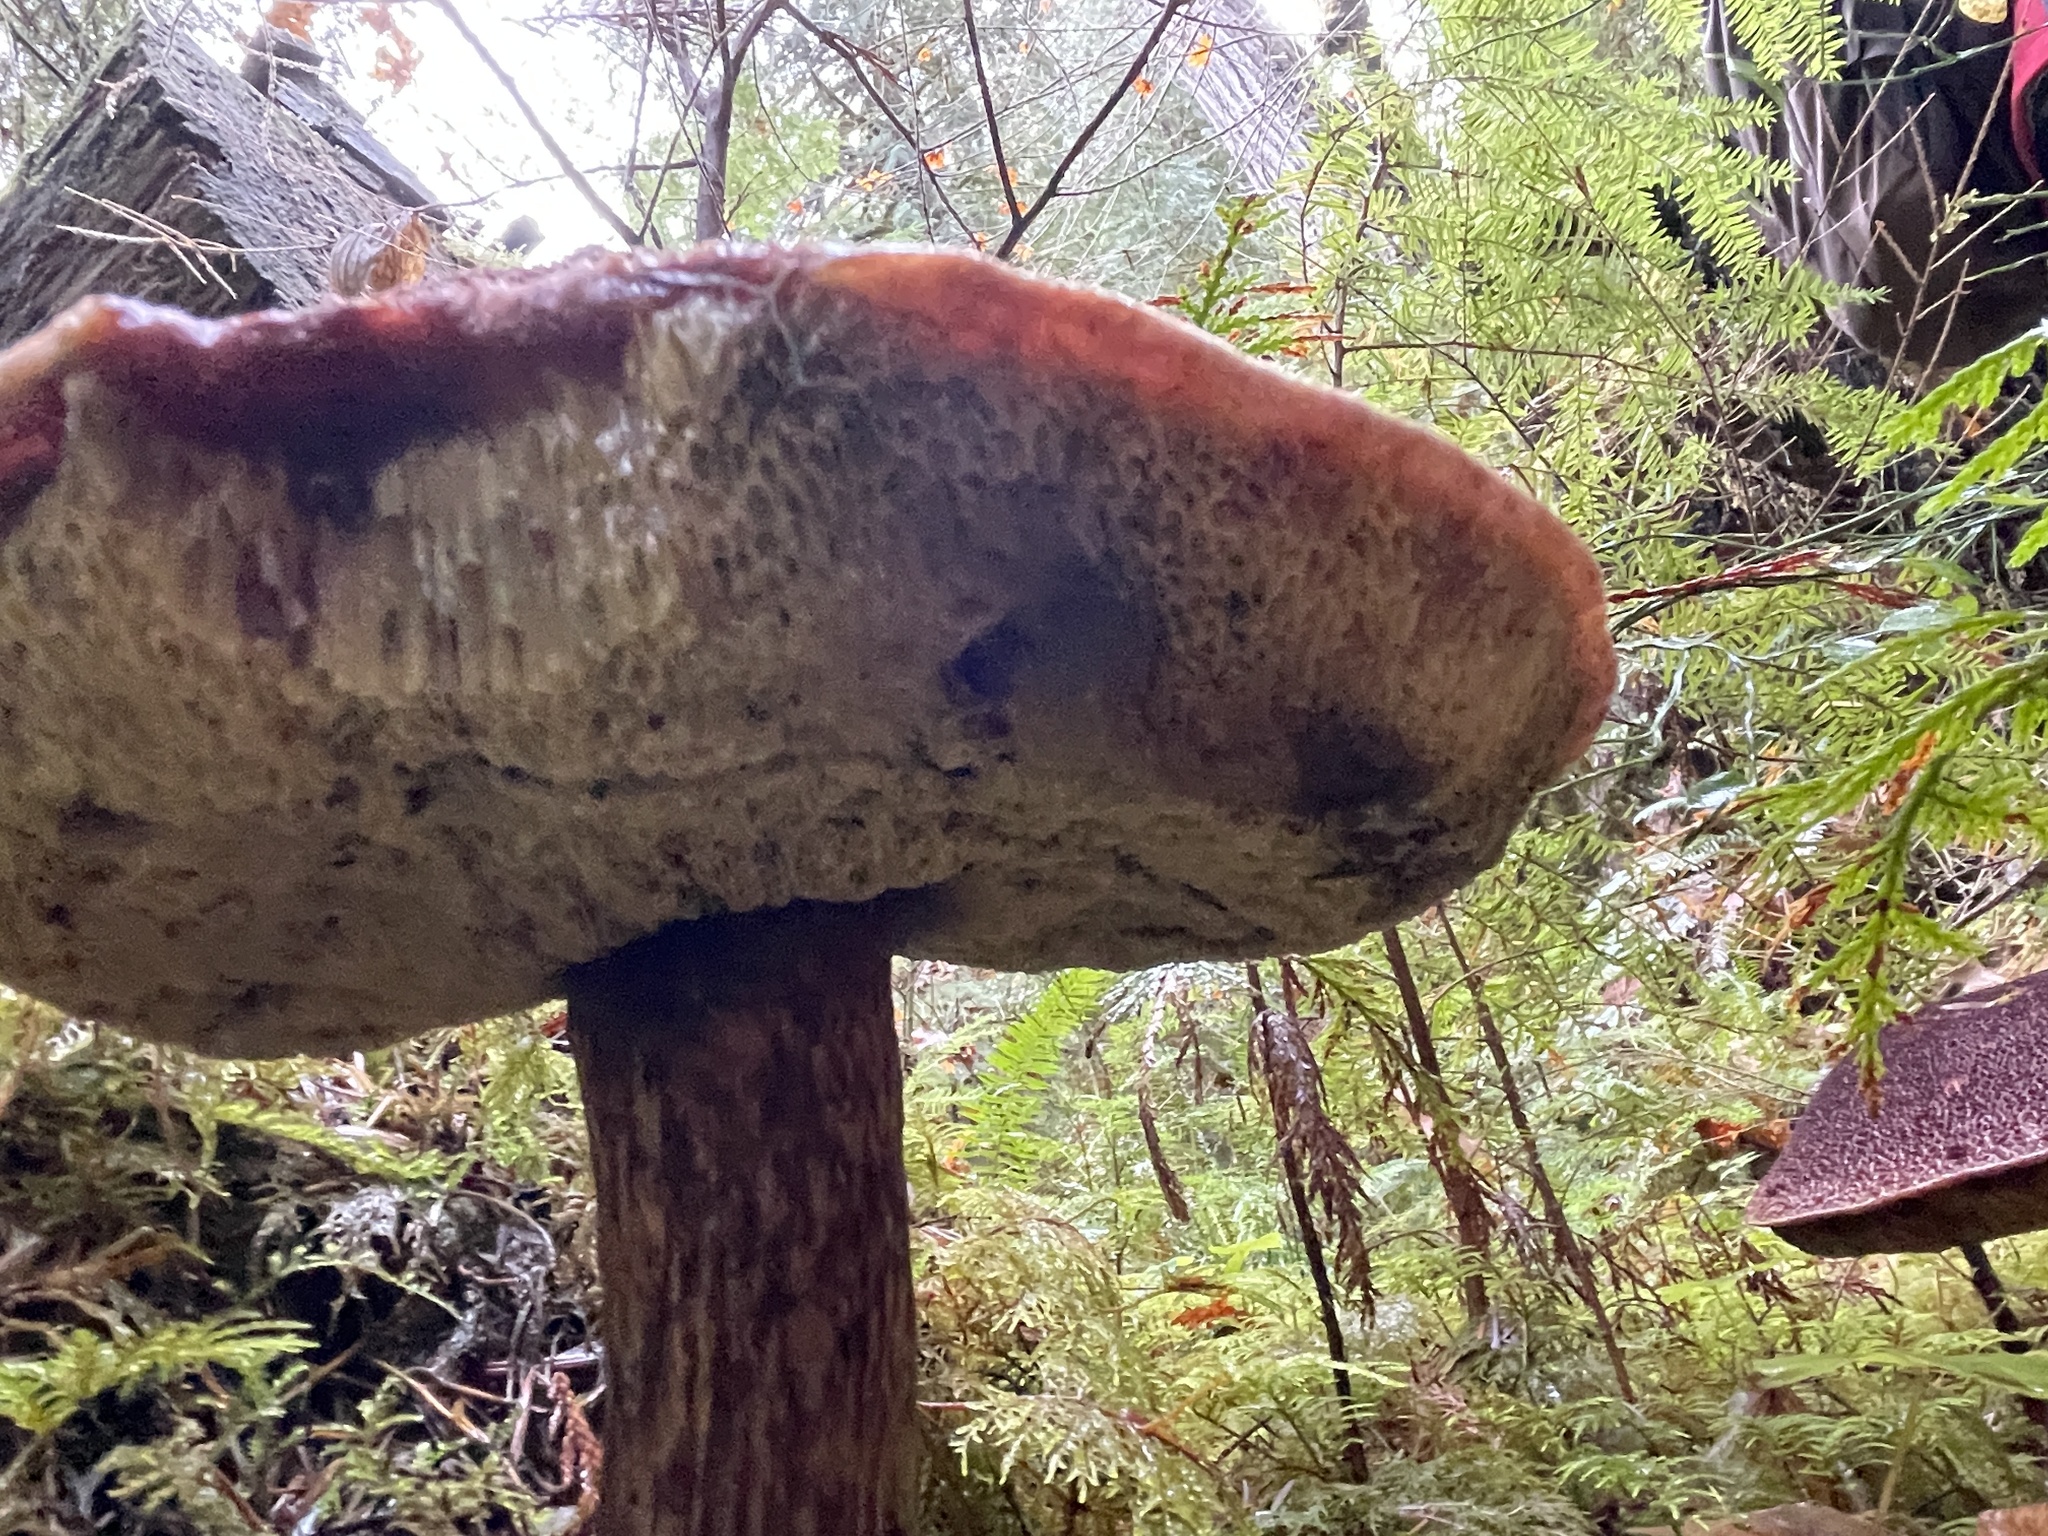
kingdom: Fungi
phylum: Basidiomycota
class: Agaricomycetes
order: Boletales
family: Boletaceae
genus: Aureoboletus
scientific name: Aureoboletus mirabilis
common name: Admirable bolete
